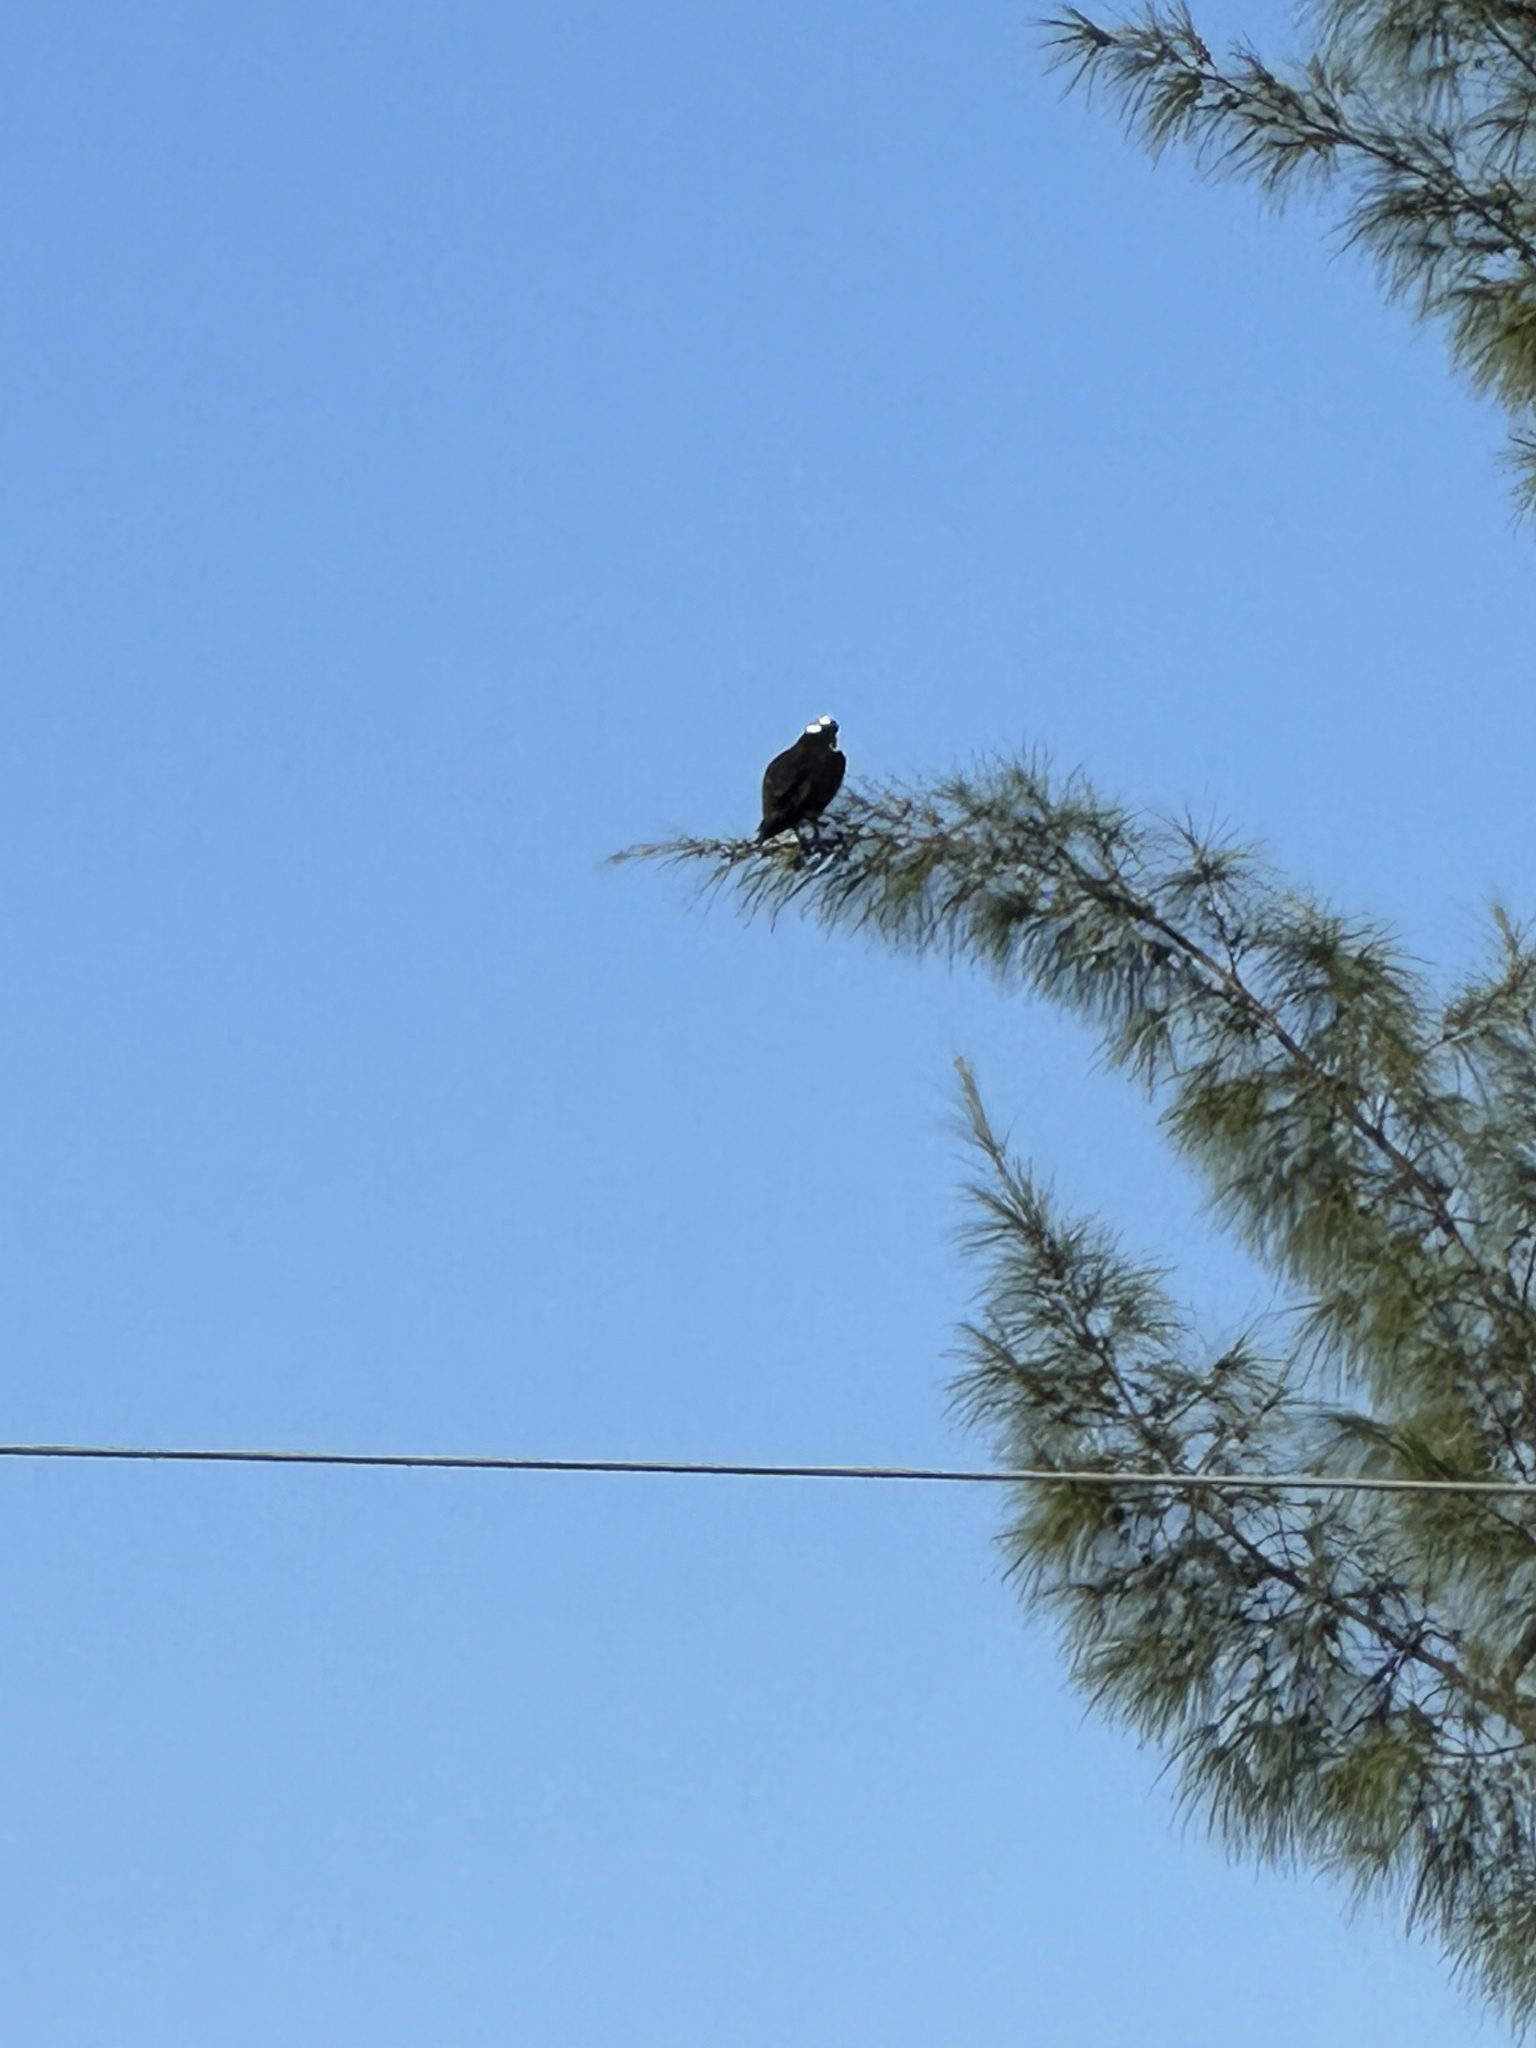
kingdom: Animalia
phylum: Chordata
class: Aves
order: Accipitriformes
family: Pandionidae
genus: Pandion
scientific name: Pandion haliaetus
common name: Osprey
